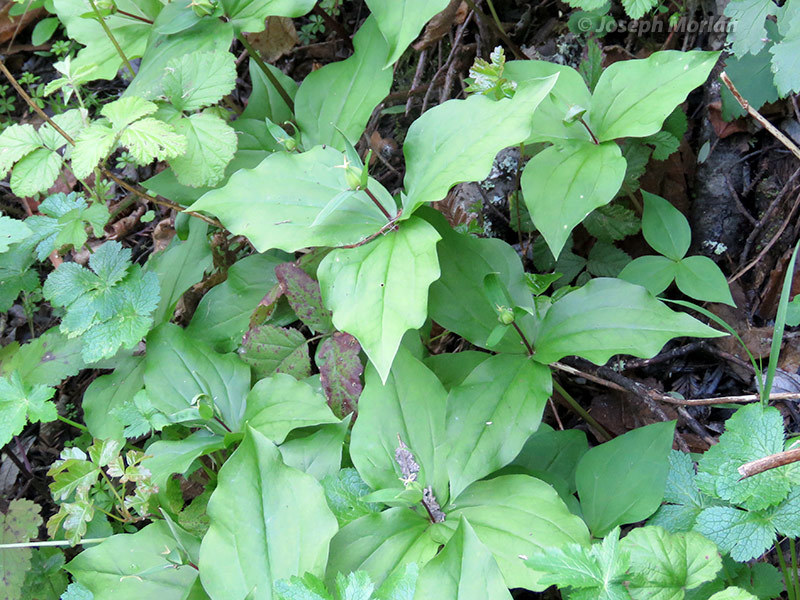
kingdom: Plantae
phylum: Tracheophyta
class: Liliopsida
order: Liliales
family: Melanthiaceae
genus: Trillium
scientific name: Trillium ovatum
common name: Pacific trillium
